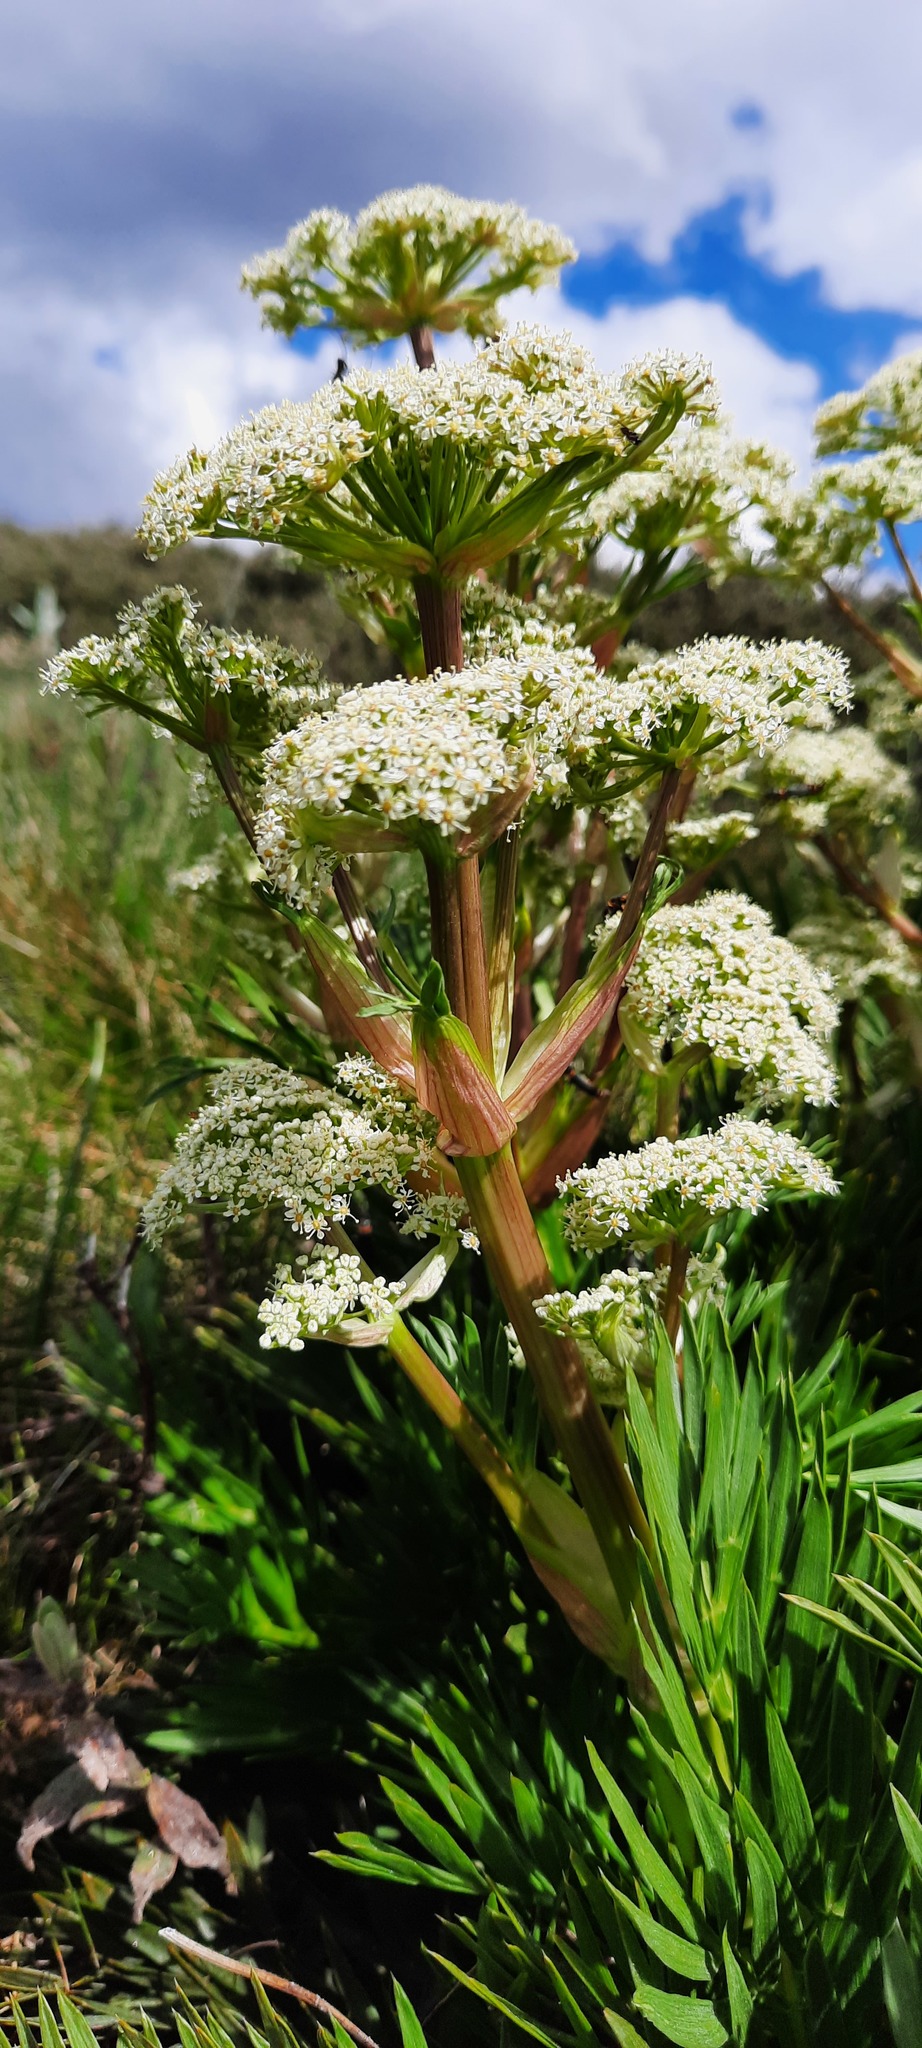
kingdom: Plantae
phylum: Tracheophyta
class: Magnoliopsida
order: Apiales
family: Apiaceae
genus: Aciphylla
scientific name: Aciphylla glacialis
